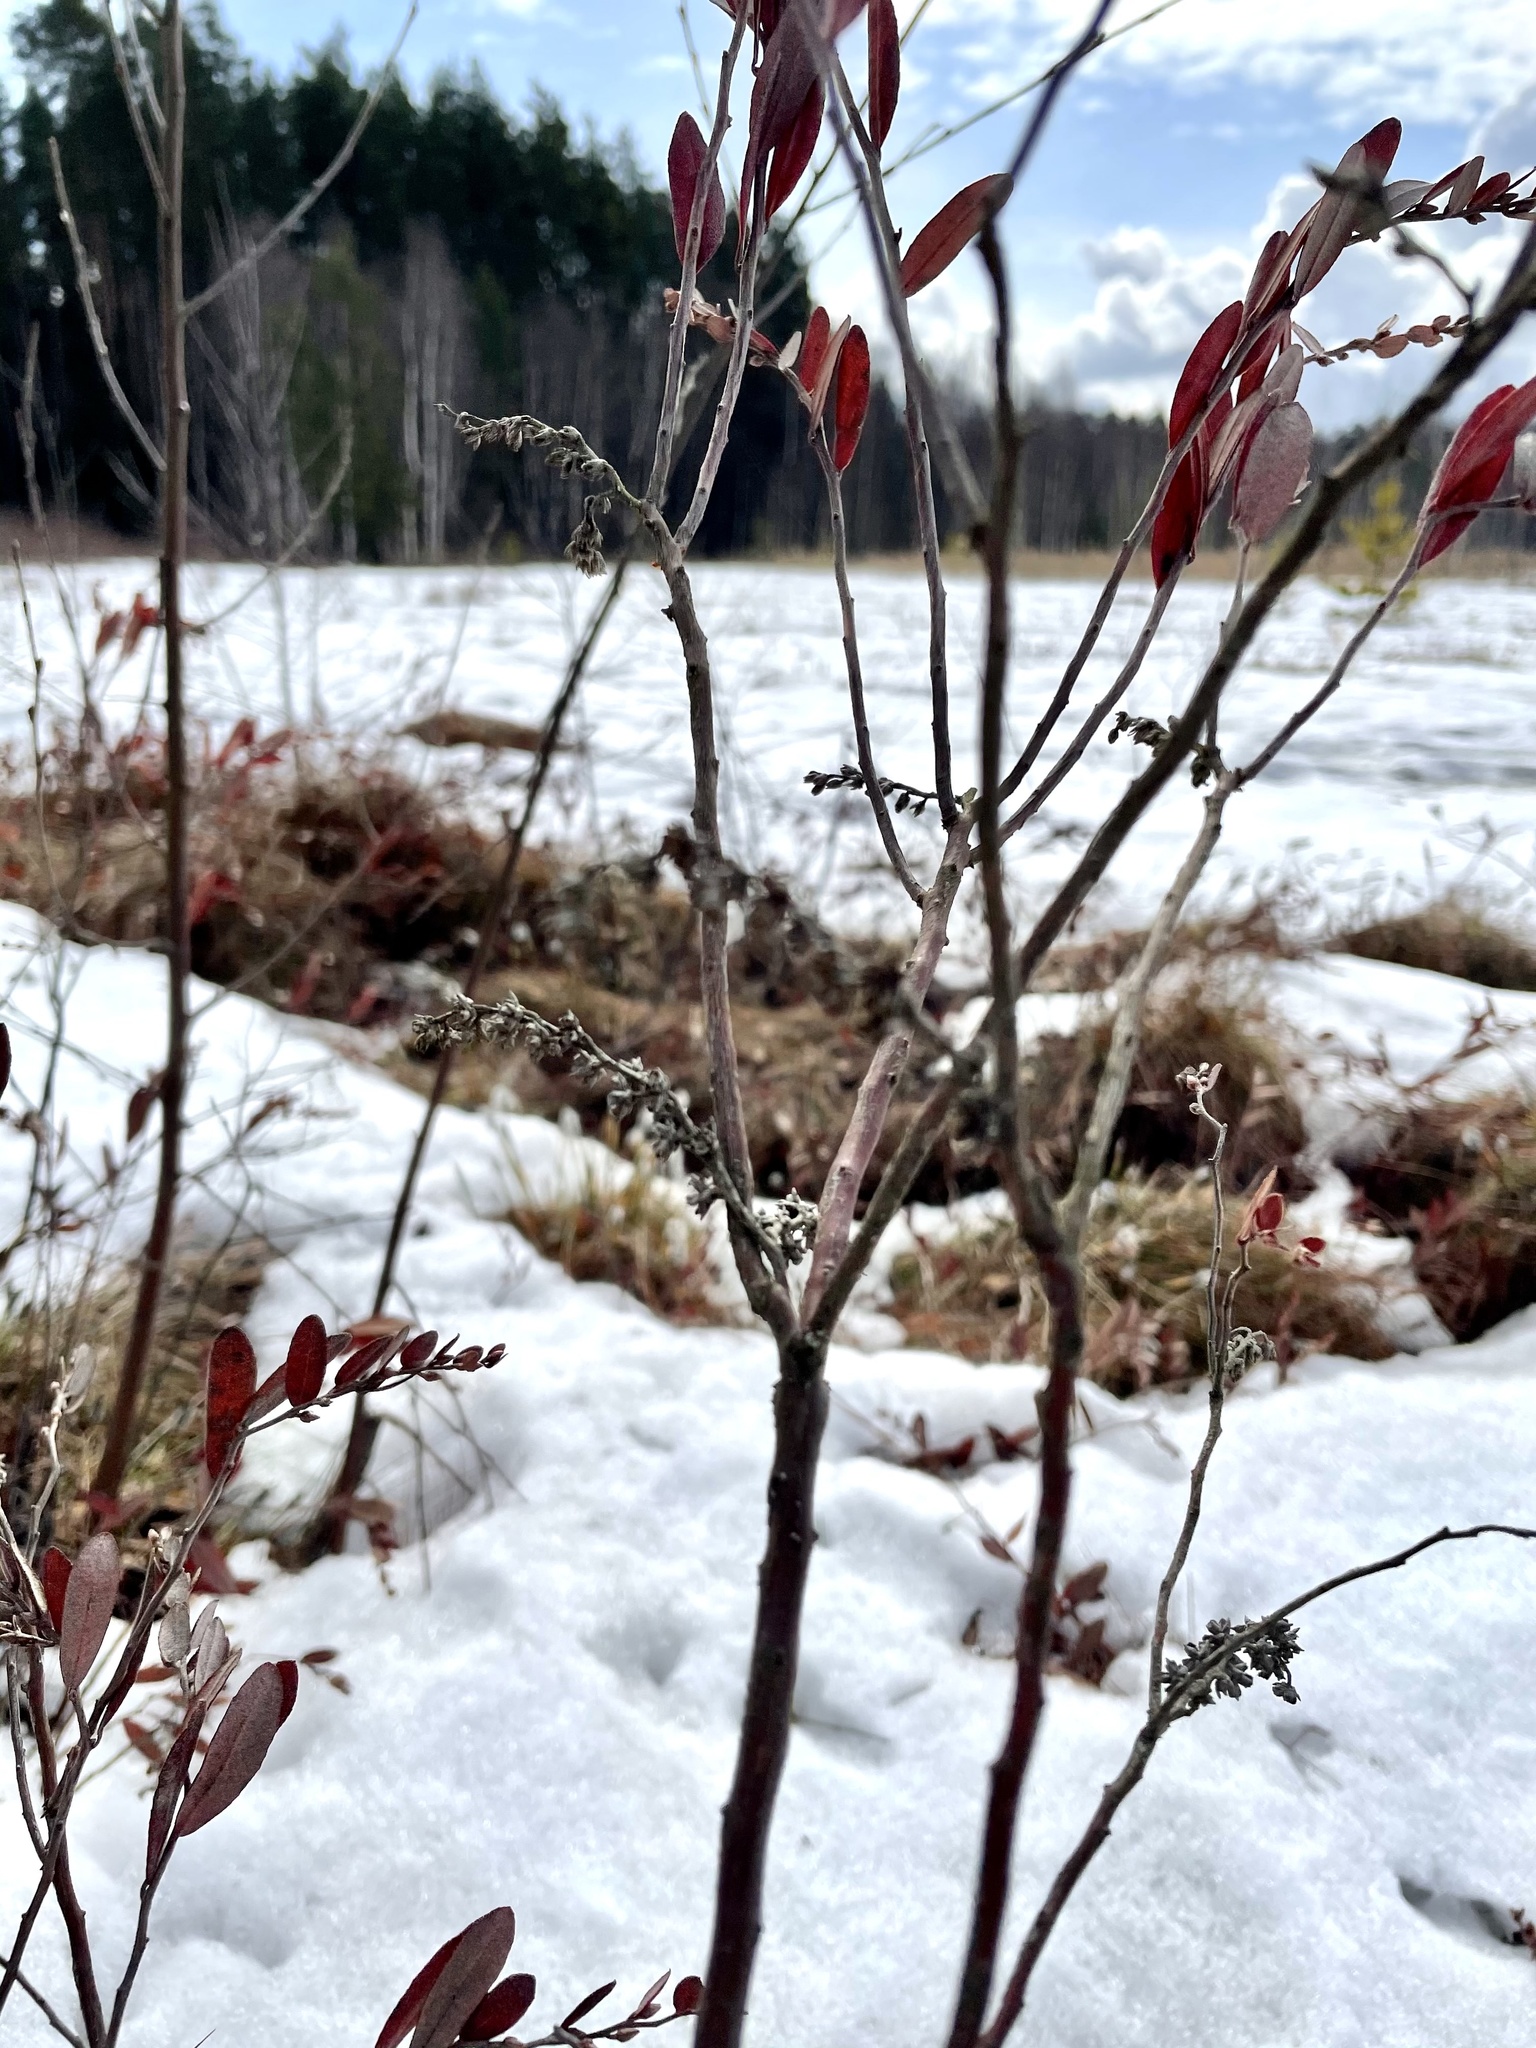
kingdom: Plantae
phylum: Tracheophyta
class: Magnoliopsida
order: Ericales
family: Ericaceae
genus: Chamaedaphne
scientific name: Chamaedaphne calyculata
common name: Leatherleaf
